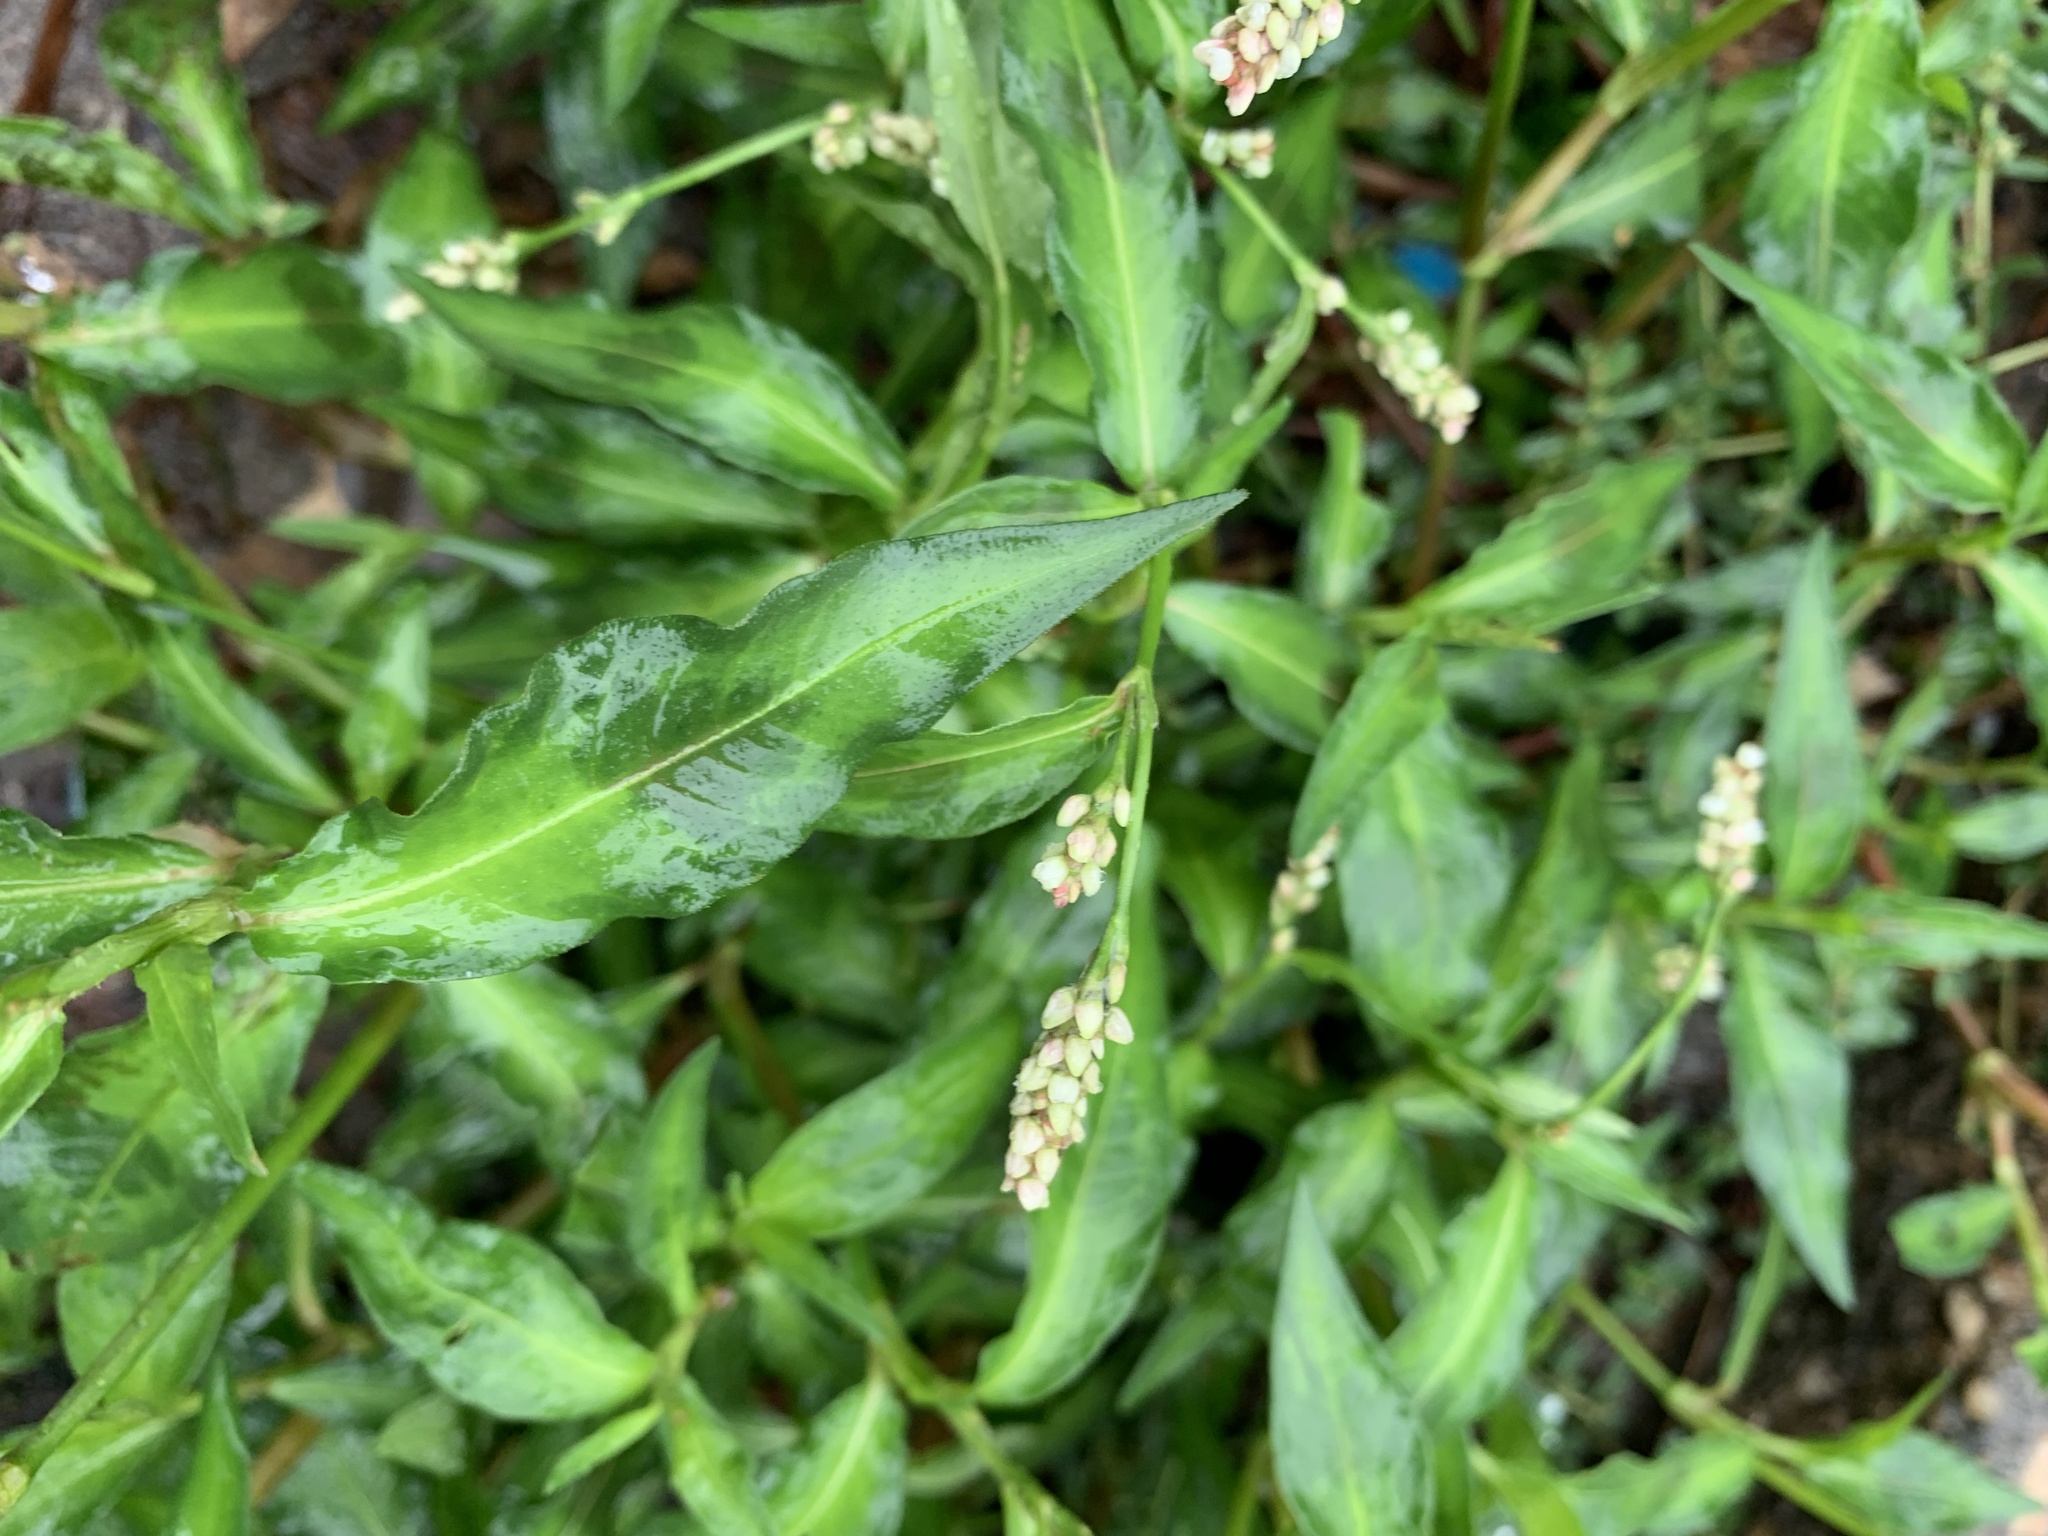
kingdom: Plantae
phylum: Tracheophyta
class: Magnoliopsida
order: Caryophyllales
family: Polygonaceae
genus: Persicaria
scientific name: Persicaria maculosa
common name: Redshank
